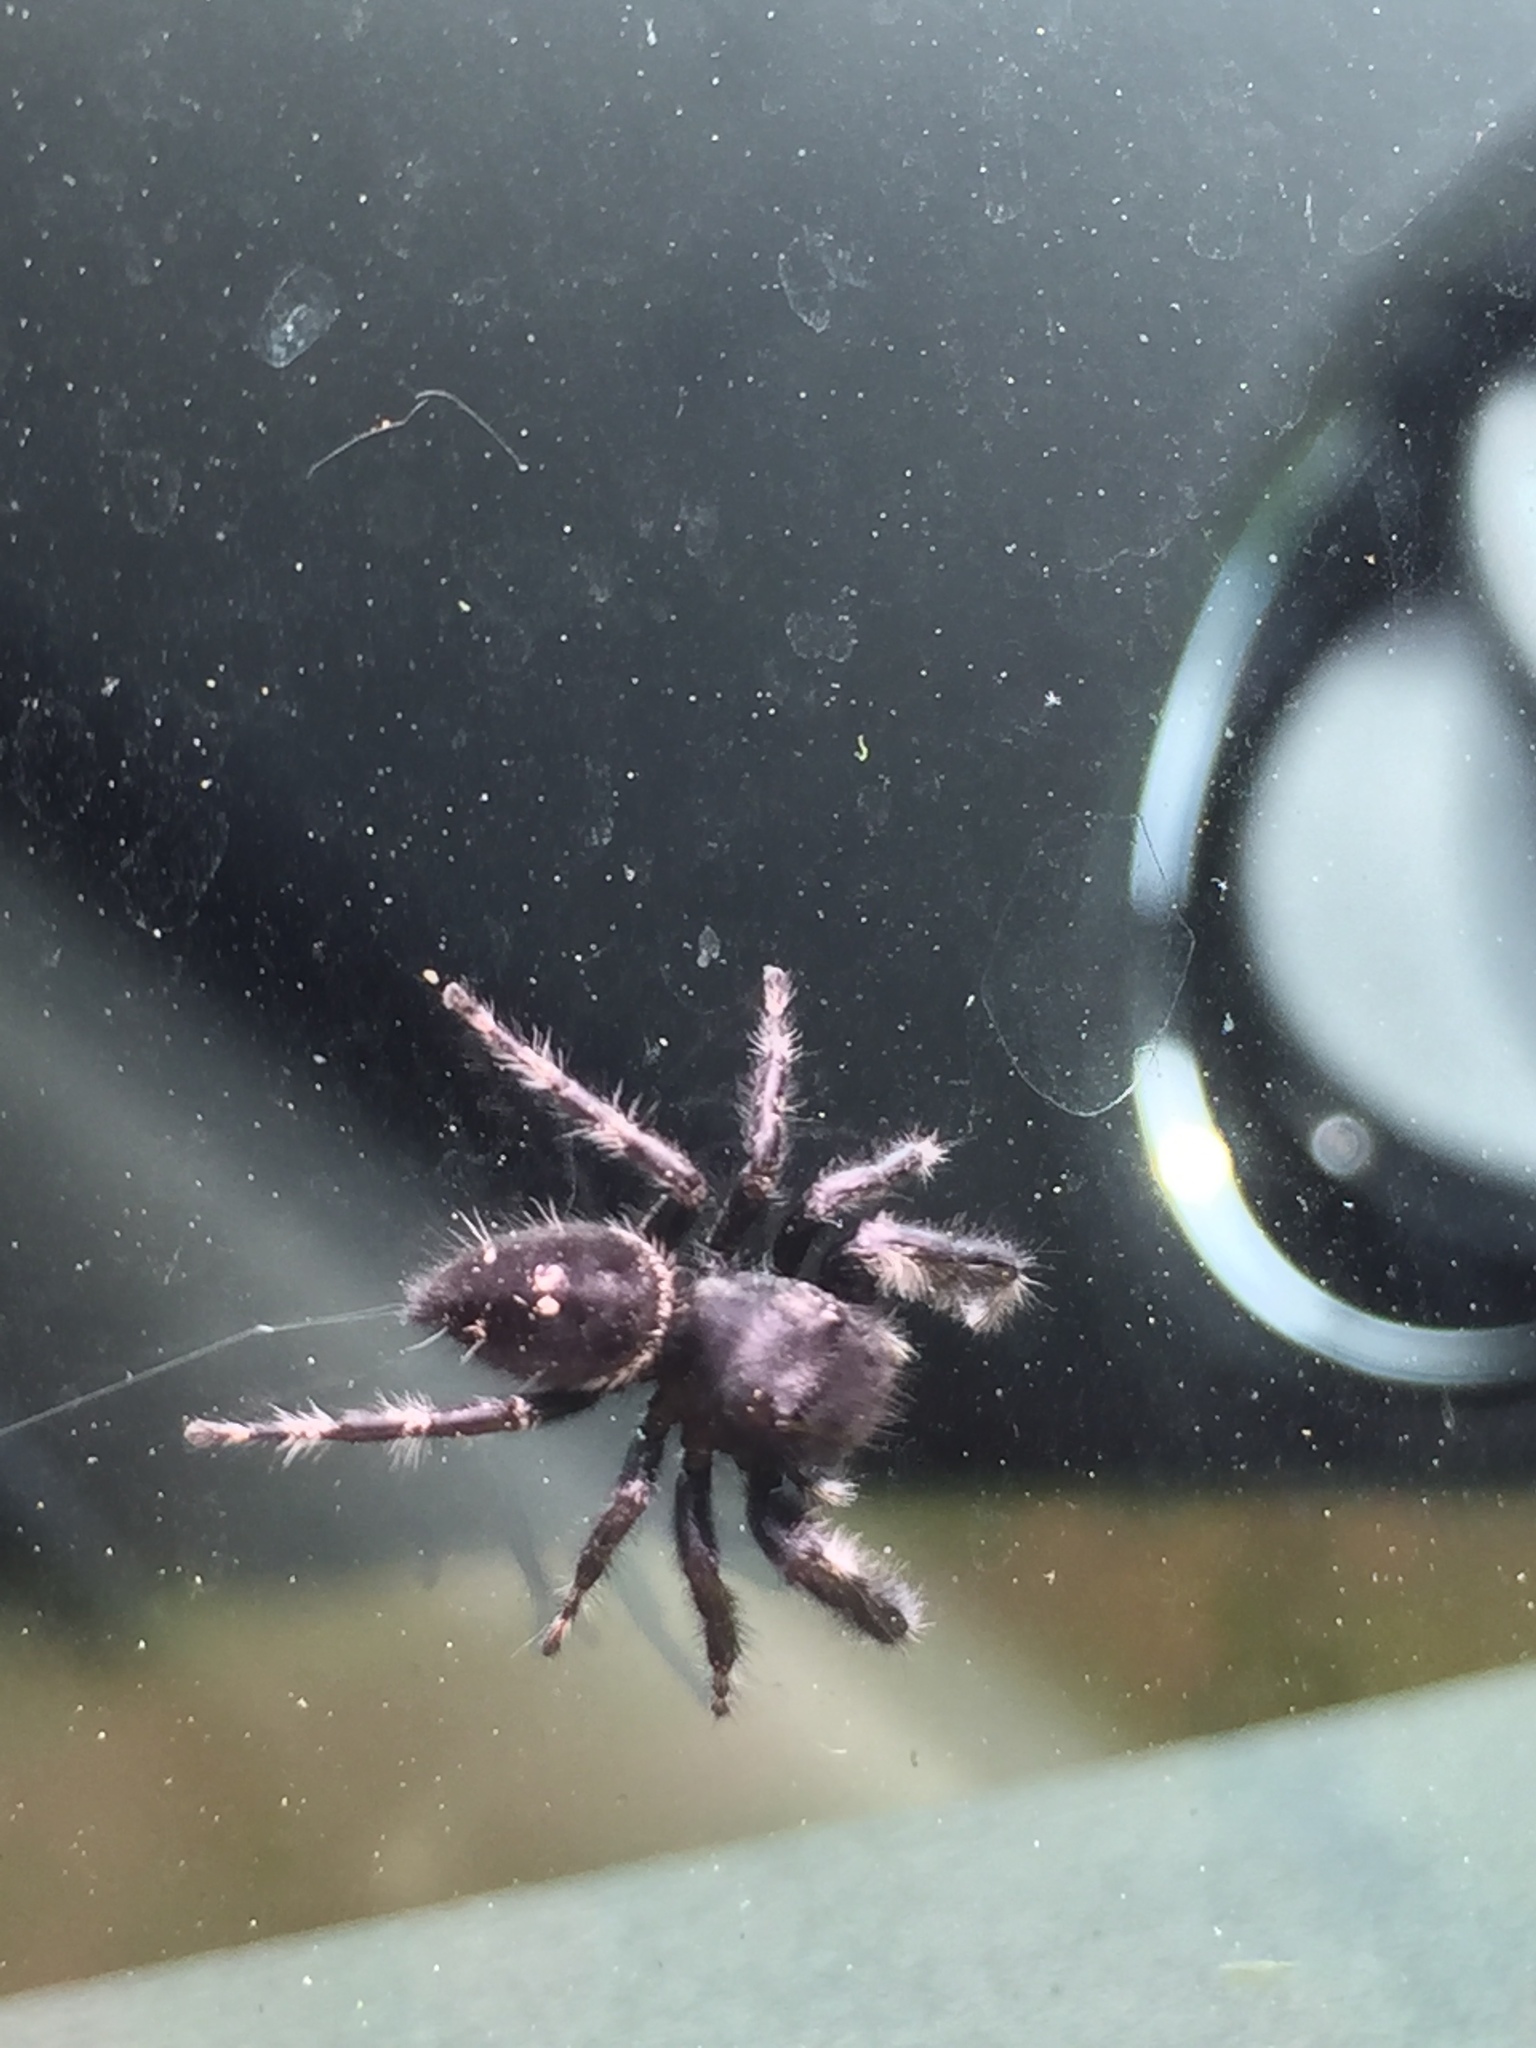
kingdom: Animalia
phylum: Arthropoda
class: Arachnida
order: Araneae
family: Salticidae
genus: Phidippus
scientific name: Phidippus audax
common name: Bold jumper
